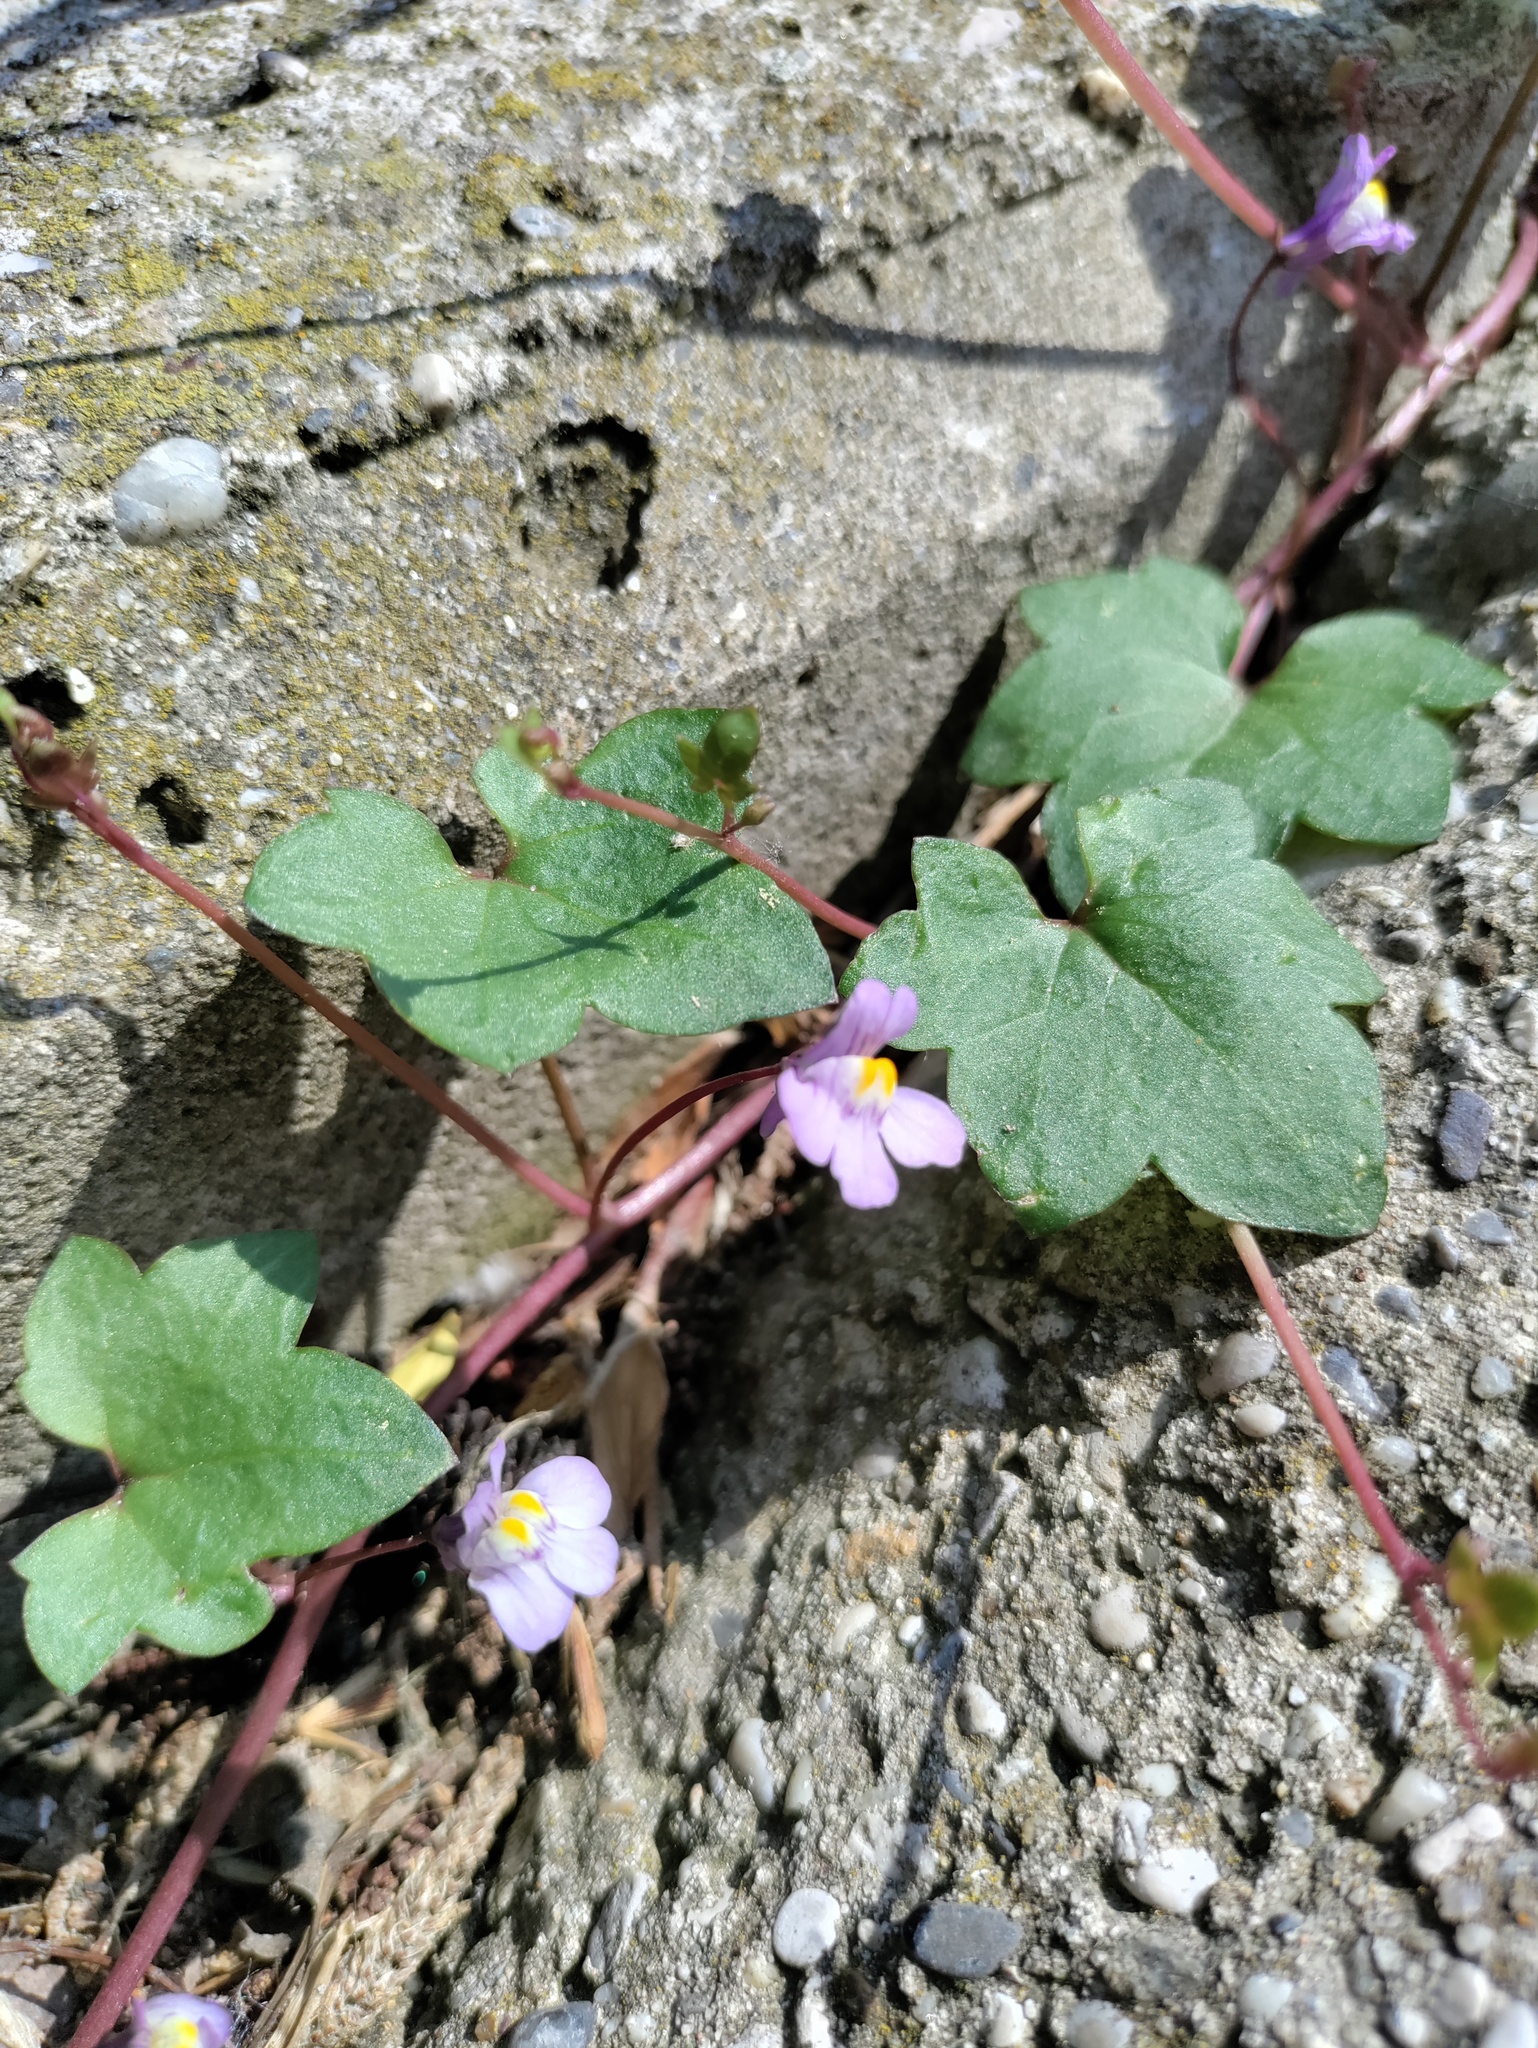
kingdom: Plantae
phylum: Tracheophyta
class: Magnoliopsida
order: Lamiales
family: Plantaginaceae
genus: Cymbalaria
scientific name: Cymbalaria muralis
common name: Ivy-leaved toadflax
